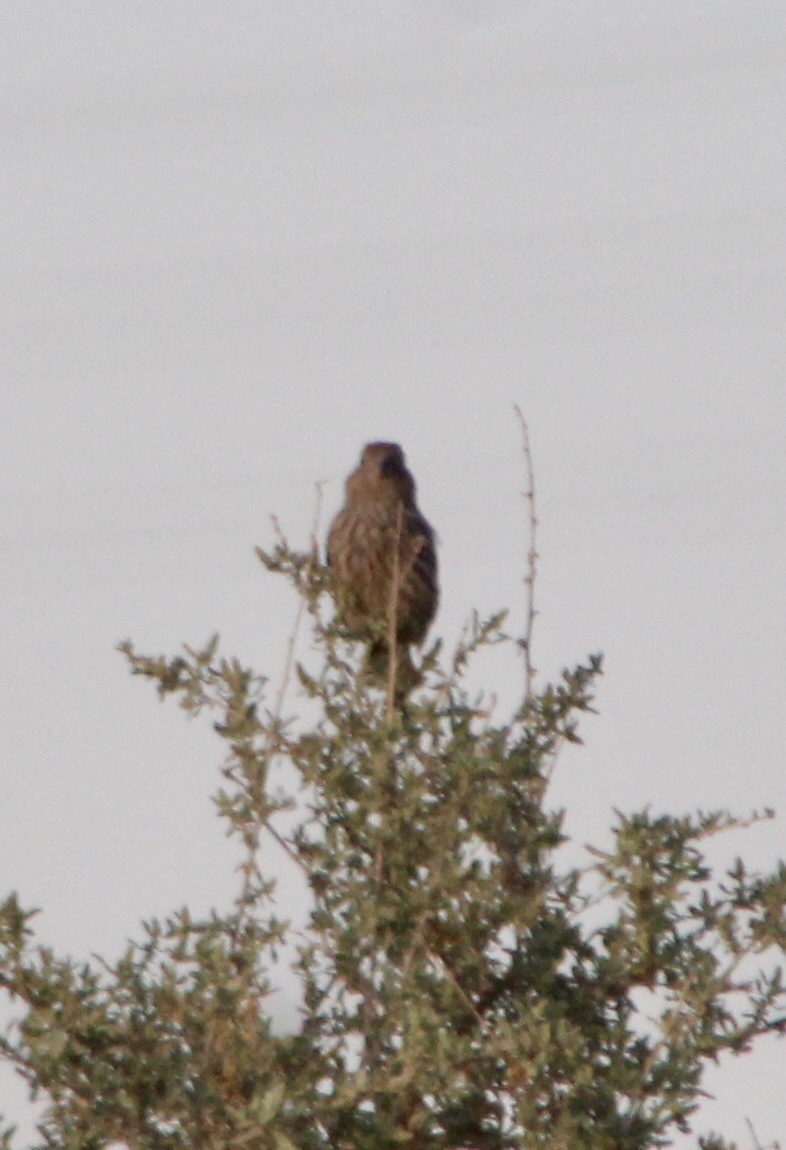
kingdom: Animalia
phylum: Chordata
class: Aves
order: Passeriformes
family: Fringillidae
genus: Haemorhous
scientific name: Haemorhous mexicanus
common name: House finch
